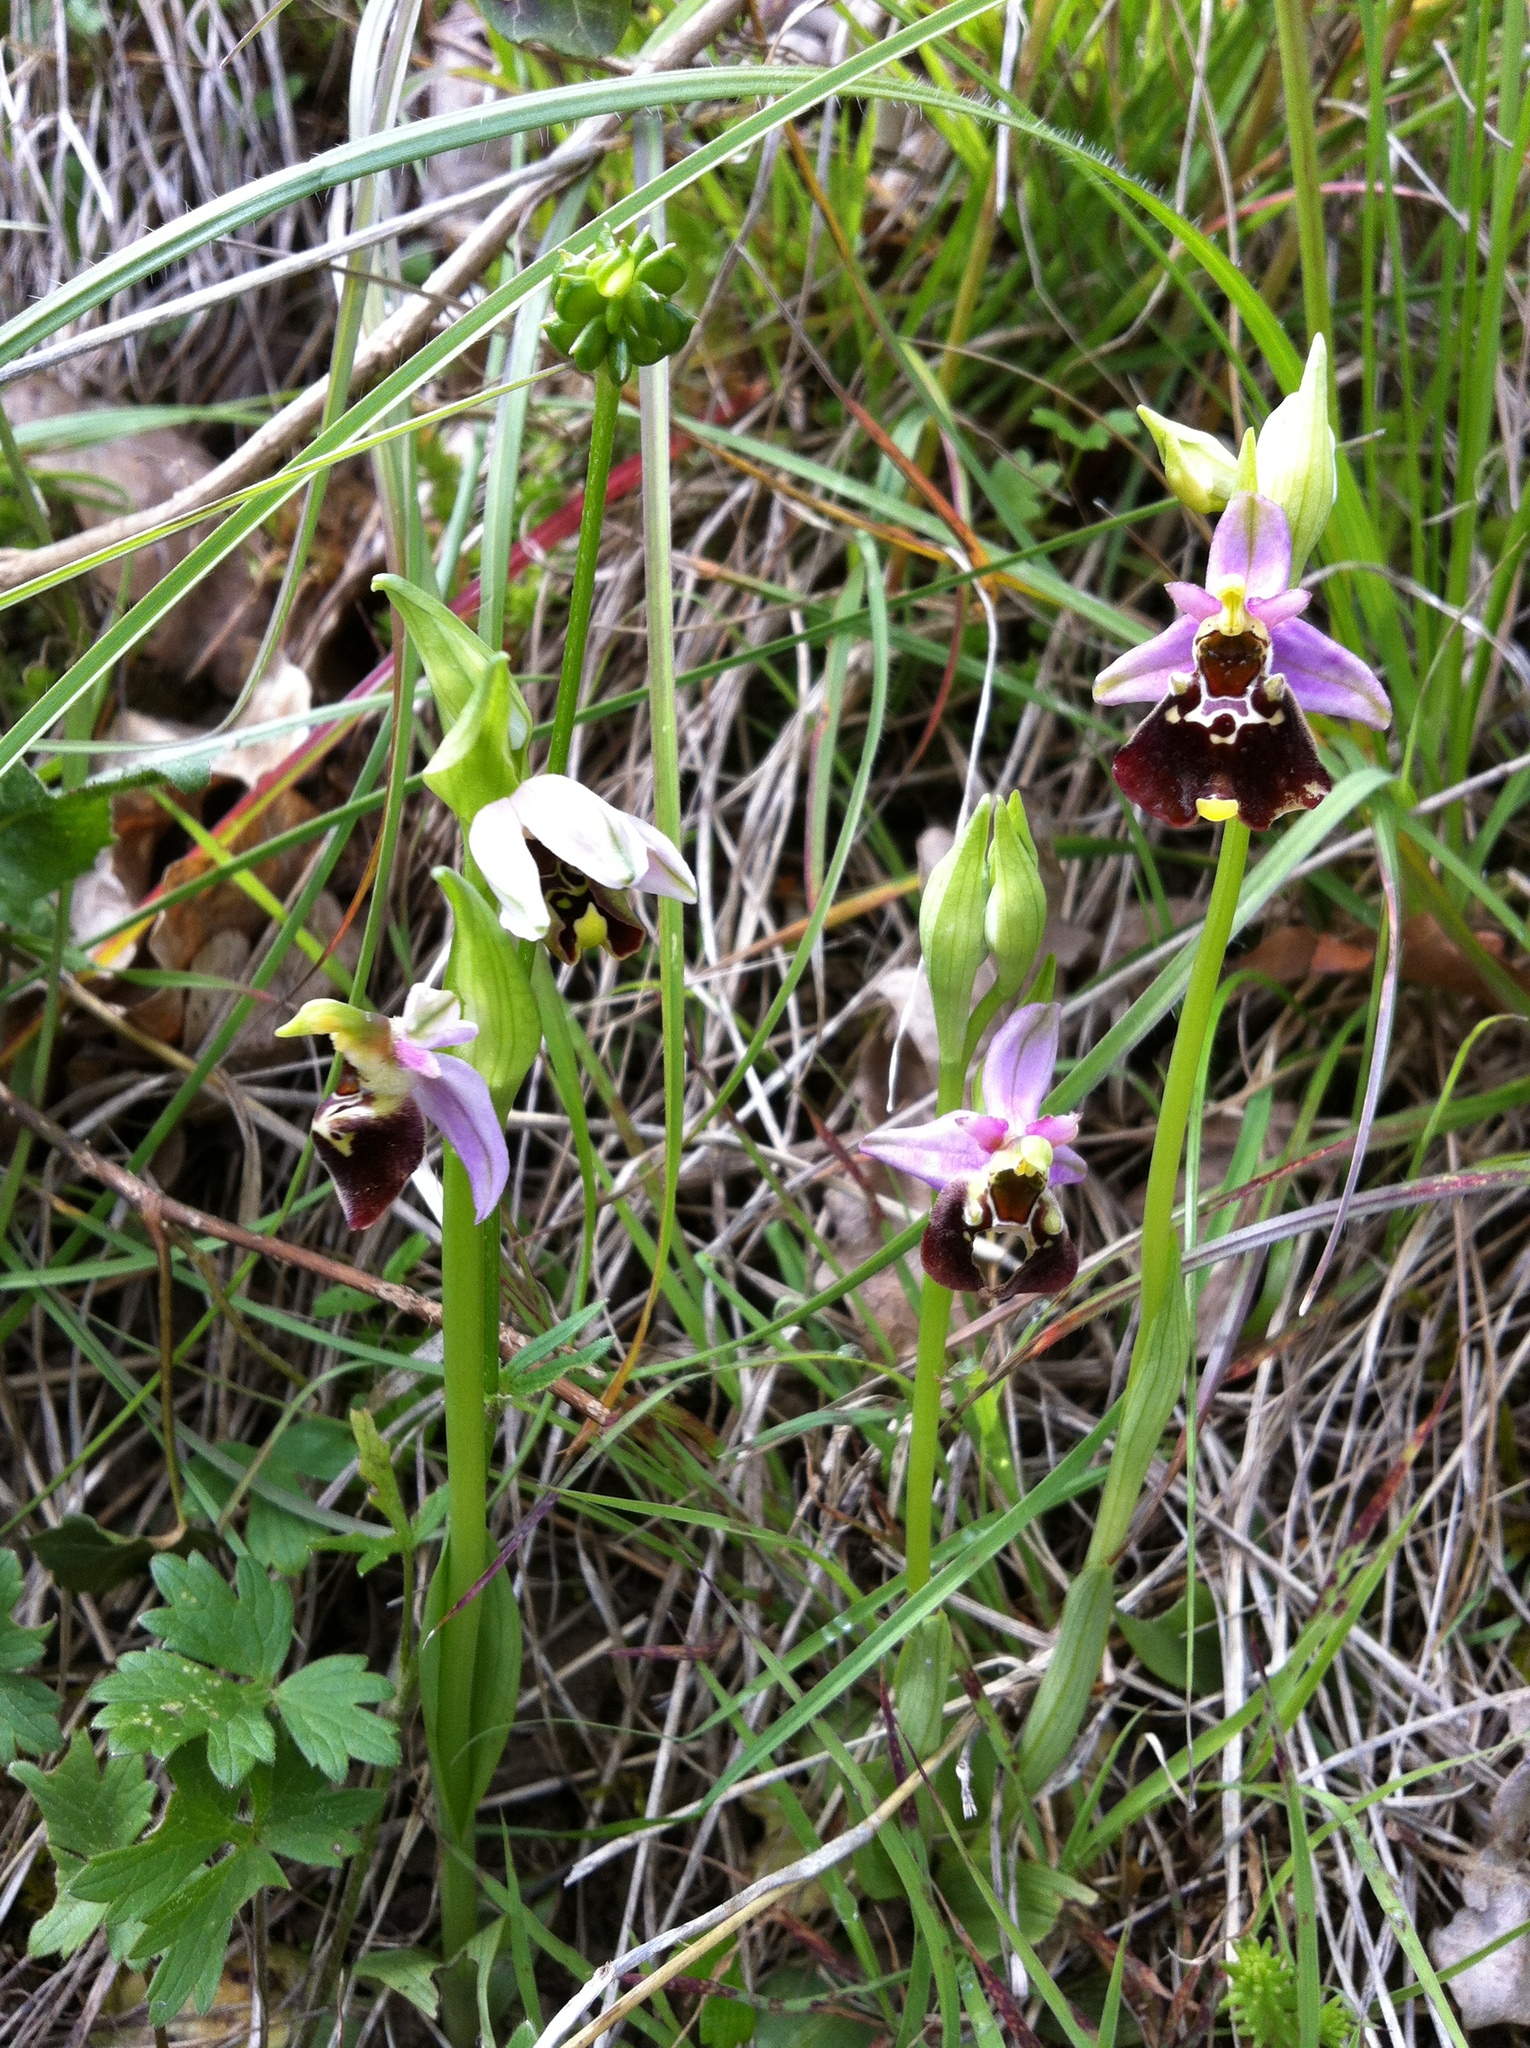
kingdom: Plantae
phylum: Tracheophyta
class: Liliopsida
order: Asparagales
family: Orchidaceae
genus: Ophrys
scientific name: Ophrys holosericea
